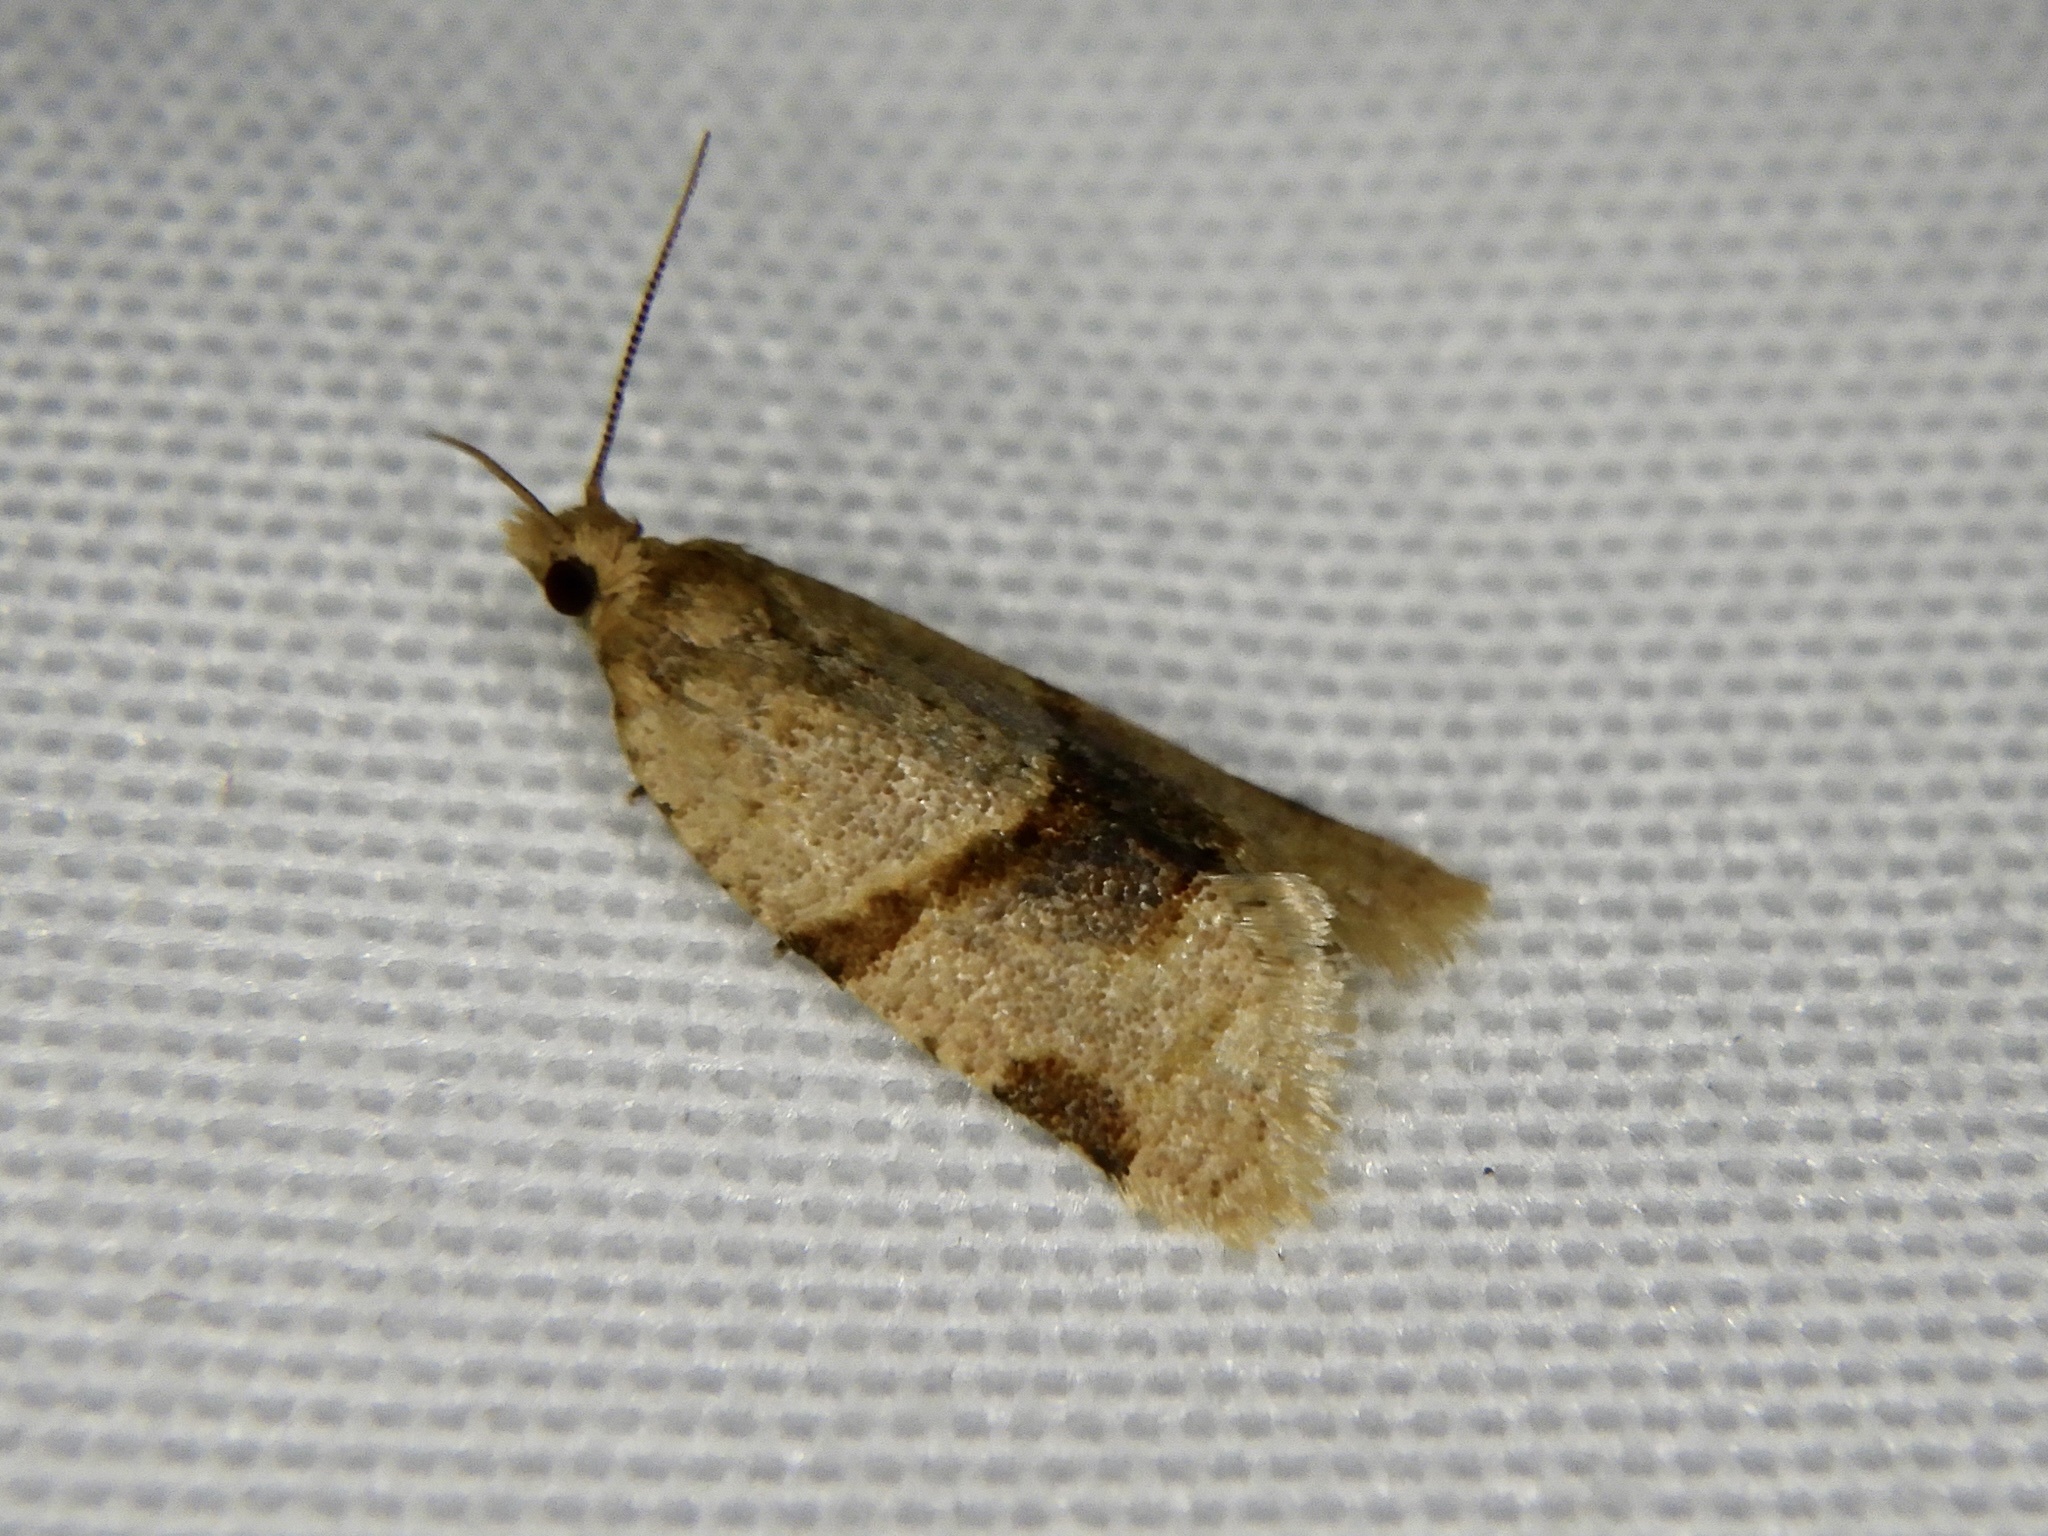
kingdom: Animalia
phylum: Arthropoda
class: Insecta
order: Lepidoptera
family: Tortricidae
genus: Diplocalyptis
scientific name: Diplocalyptis congruentana
